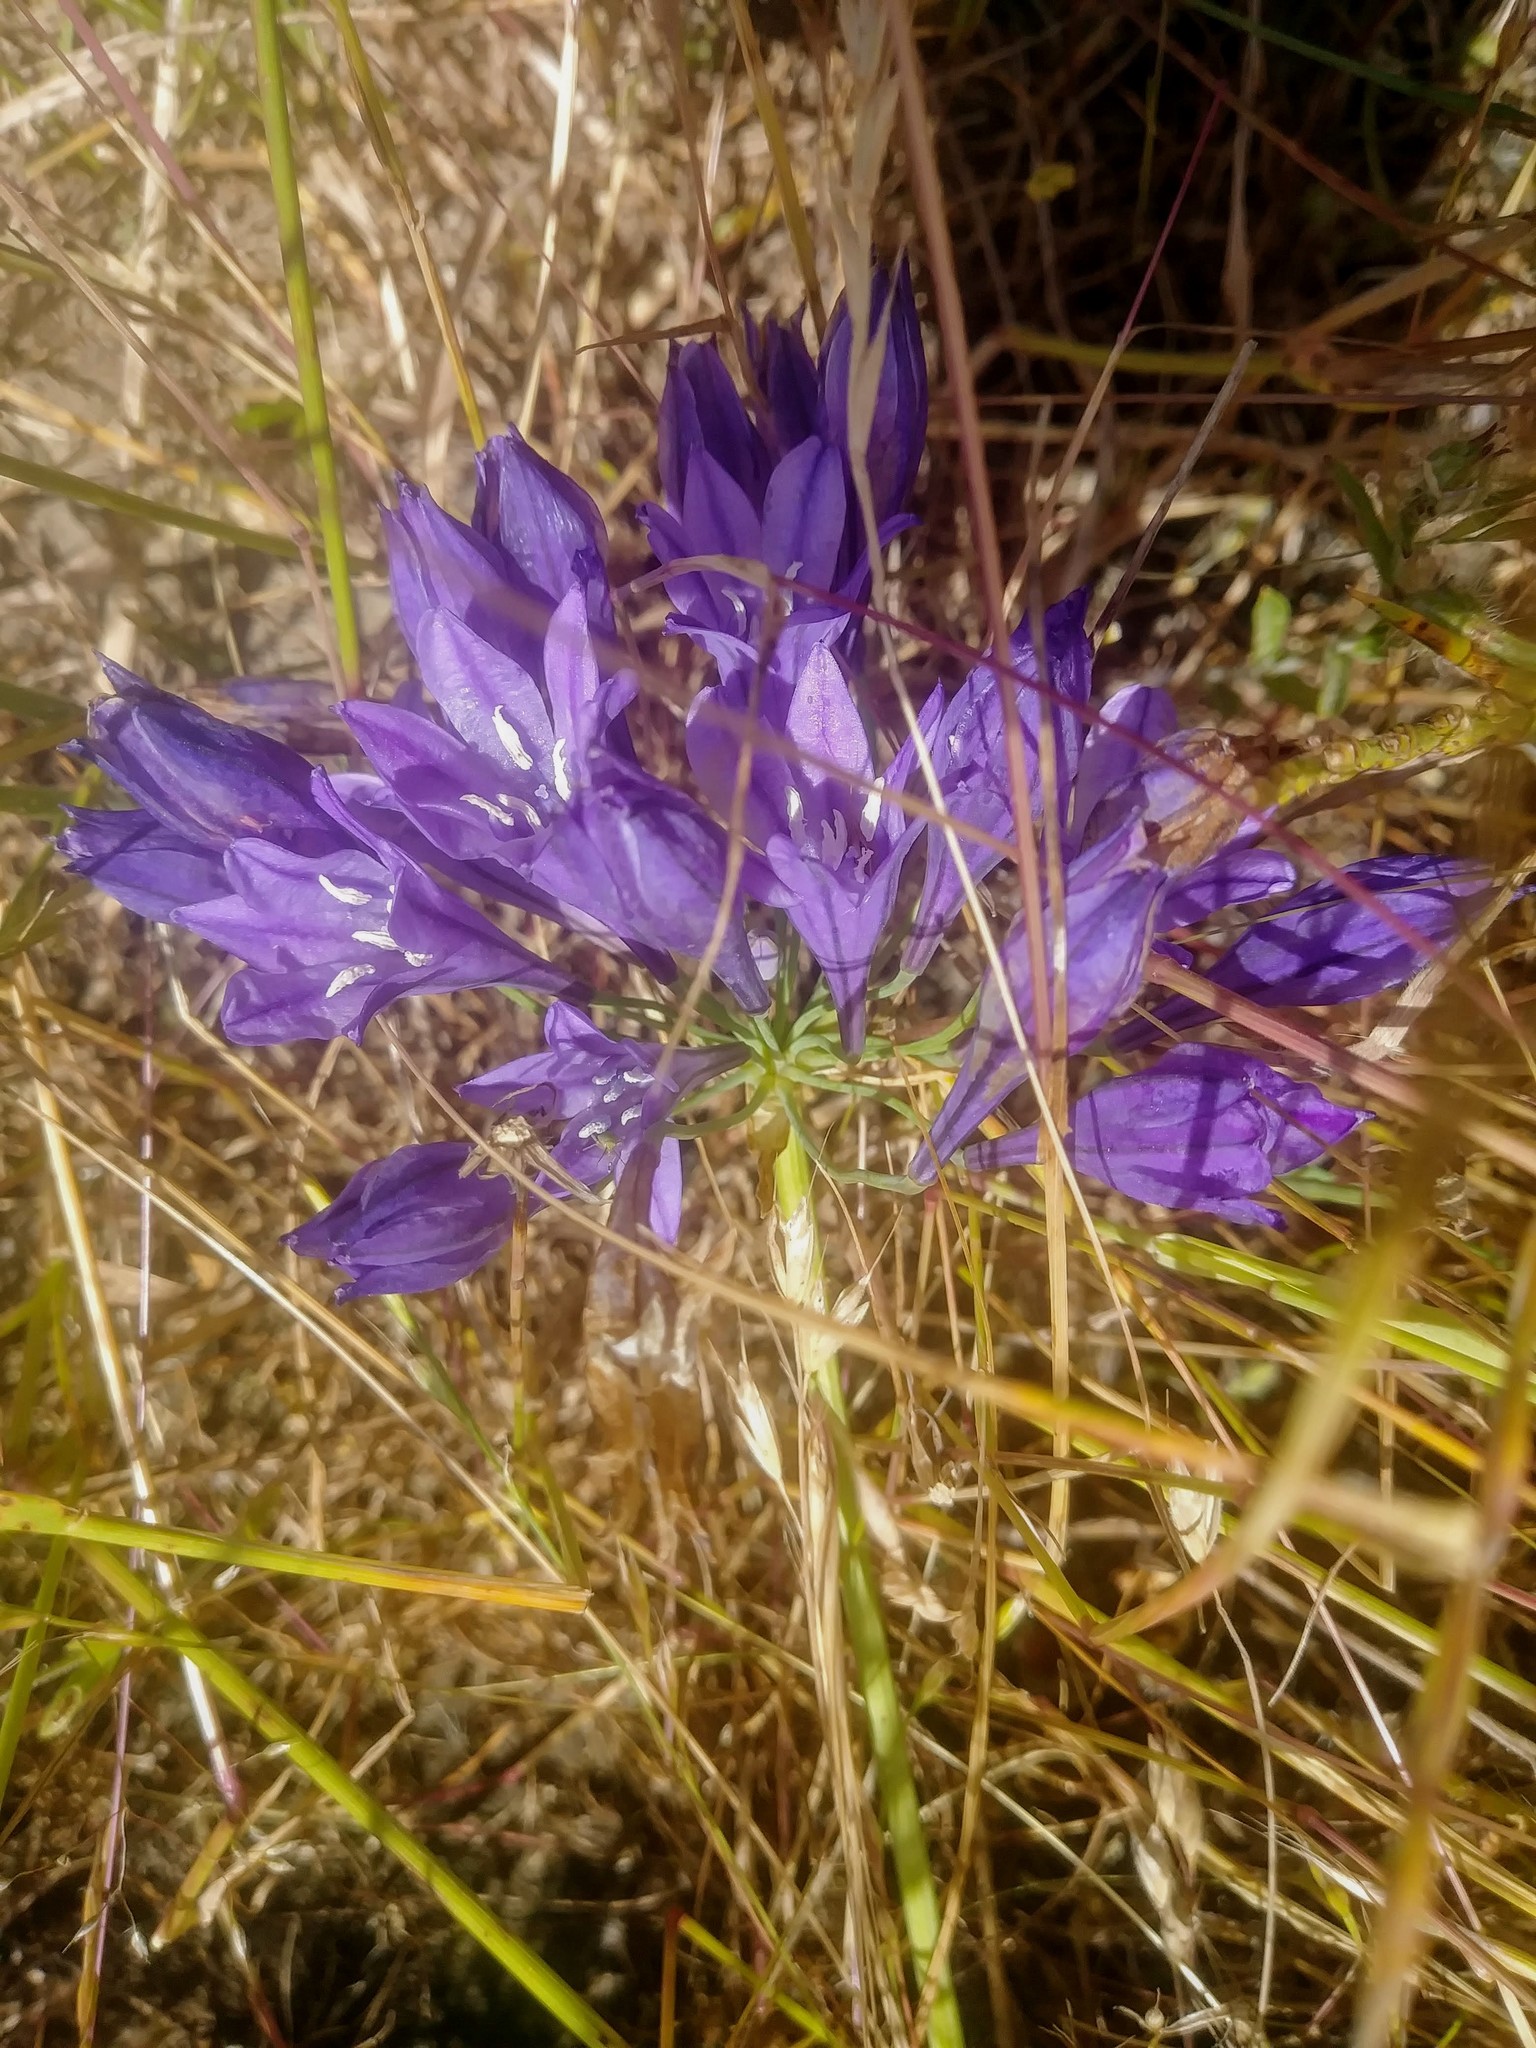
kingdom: Plantae
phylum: Tracheophyta
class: Liliopsida
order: Asparagales
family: Asparagaceae
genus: Triteleia
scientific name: Triteleia laxa
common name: Triplet-lily
